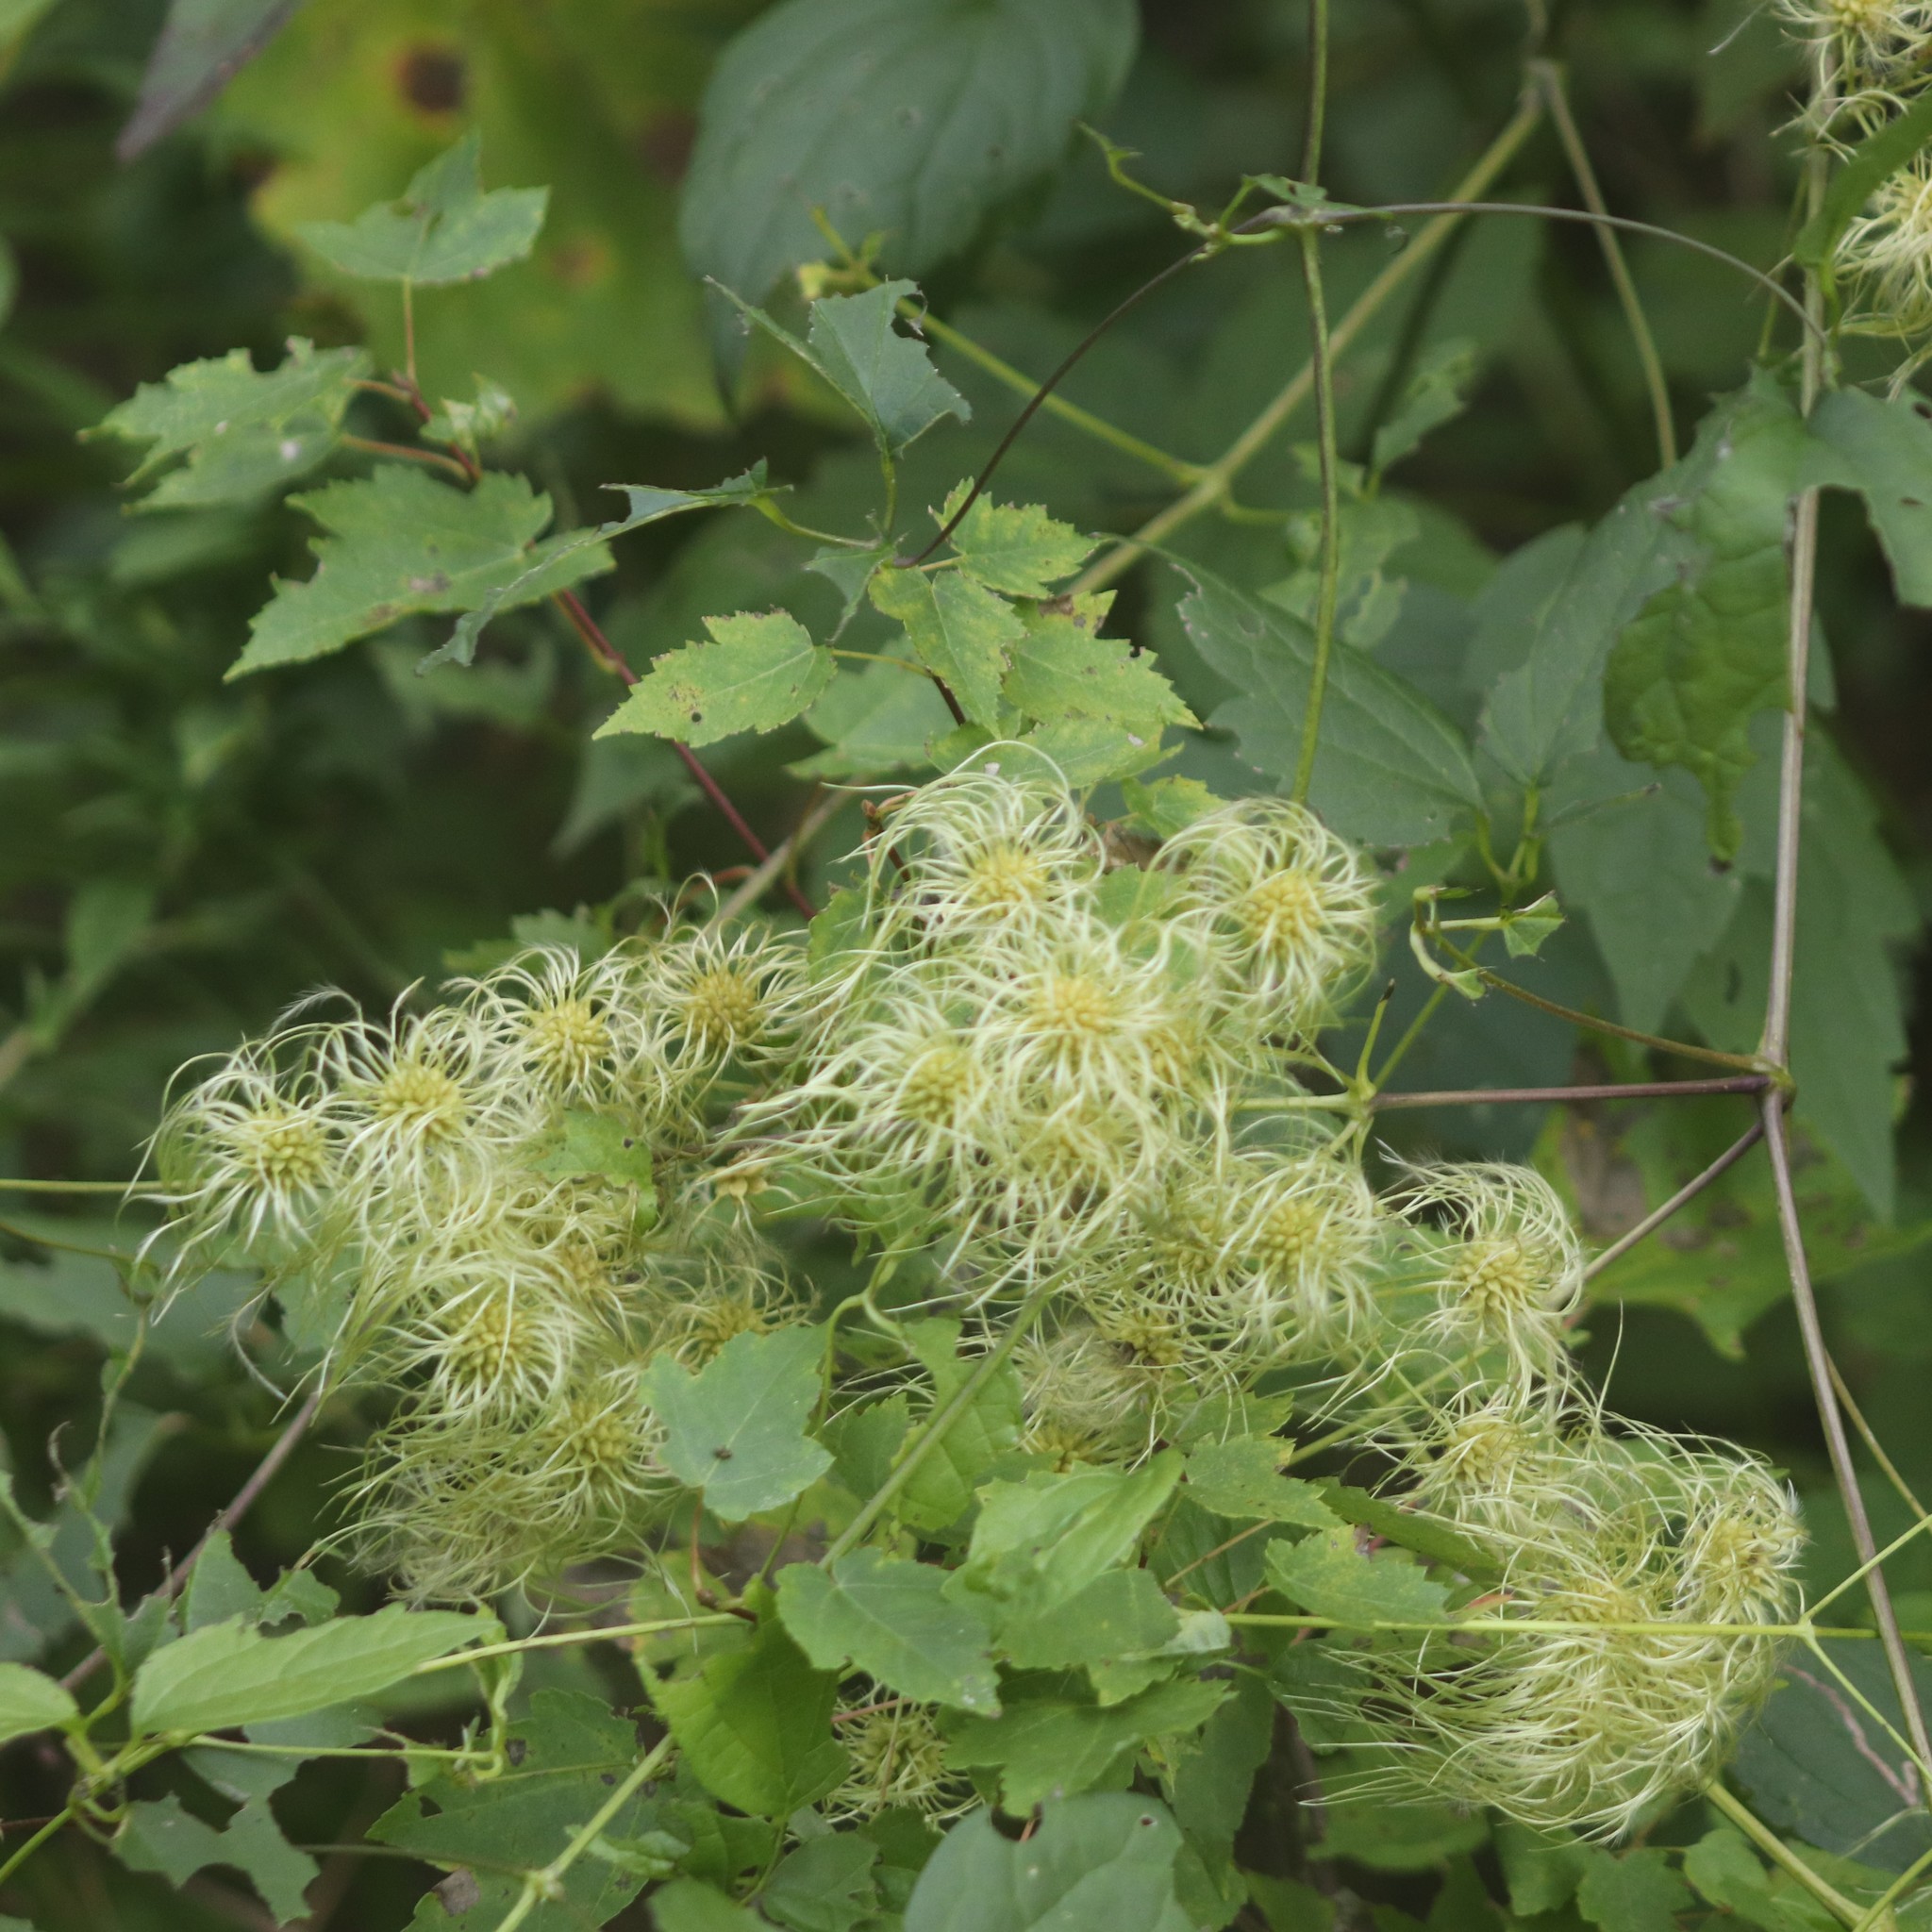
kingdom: Plantae
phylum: Tracheophyta
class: Magnoliopsida
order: Ranunculales
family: Ranunculaceae
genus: Clematis
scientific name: Clematis virginiana
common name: Virgin's-bower
